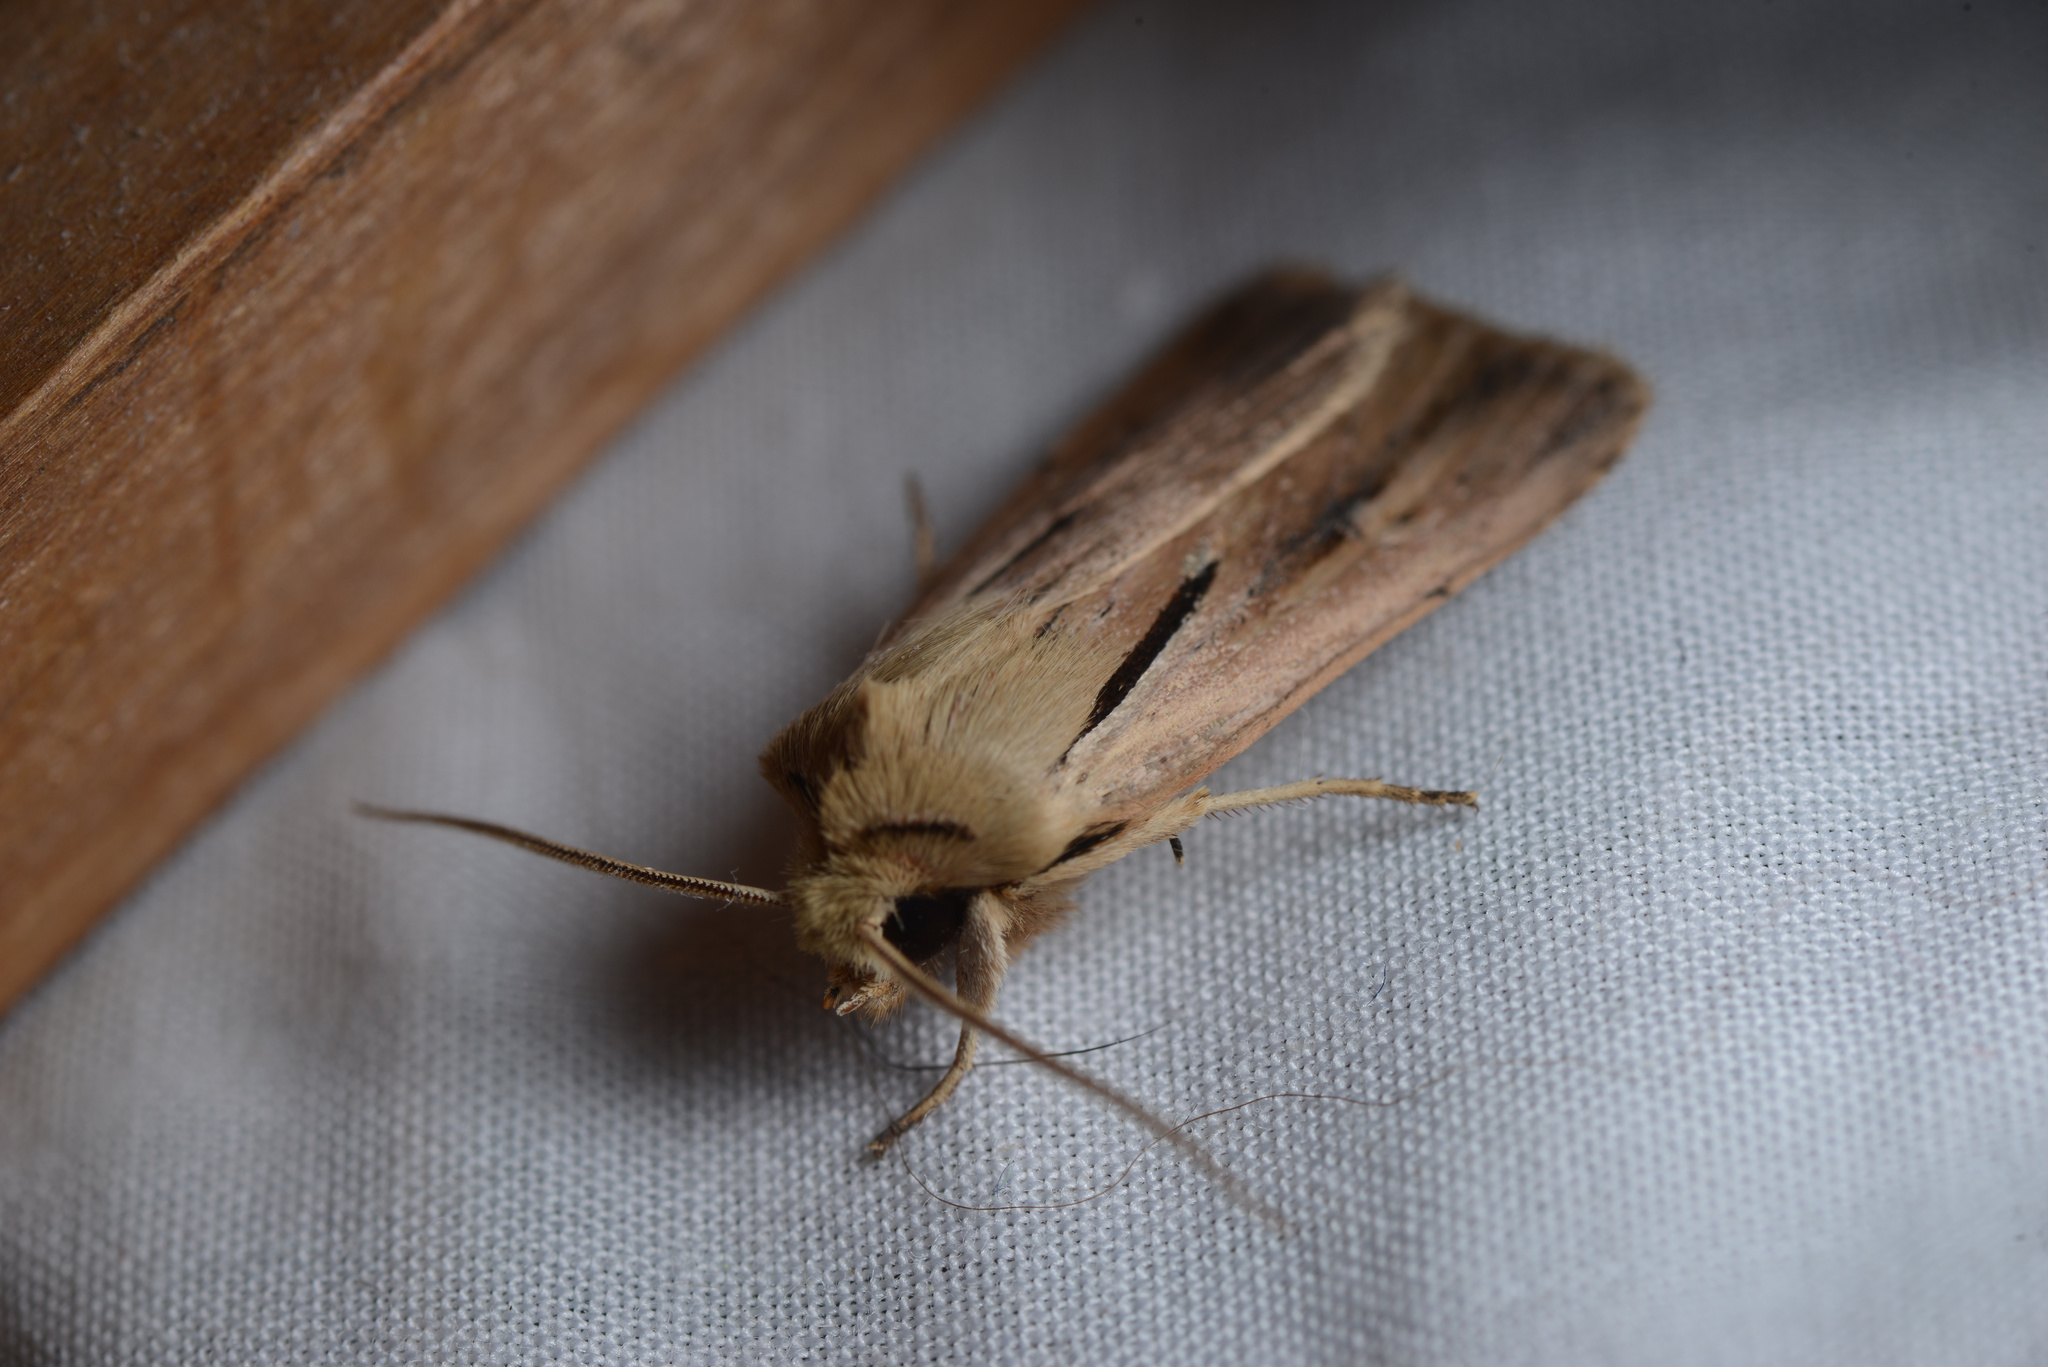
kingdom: Animalia
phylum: Arthropoda
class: Insecta
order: Lepidoptera
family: Noctuidae
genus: Ichneutica
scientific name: Ichneutica propria
